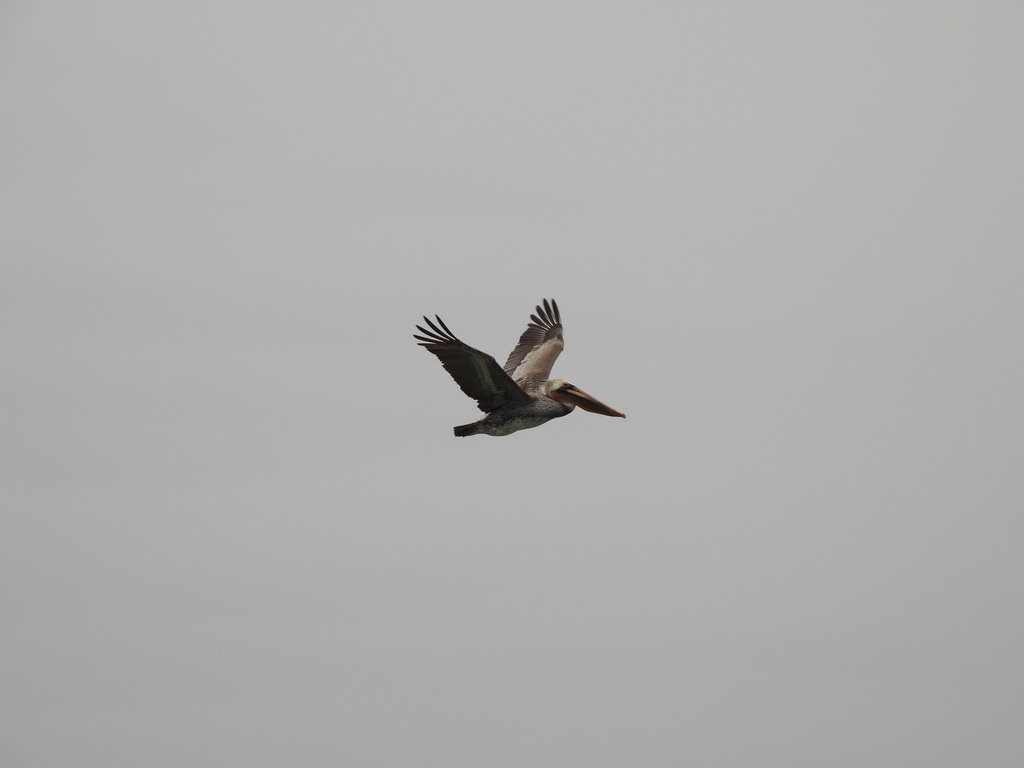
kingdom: Animalia
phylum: Chordata
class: Aves
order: Pelecaniformes
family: Pelecanidae
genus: Pelecanus
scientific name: Pelecanus occidentalis
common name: Brown pelican
